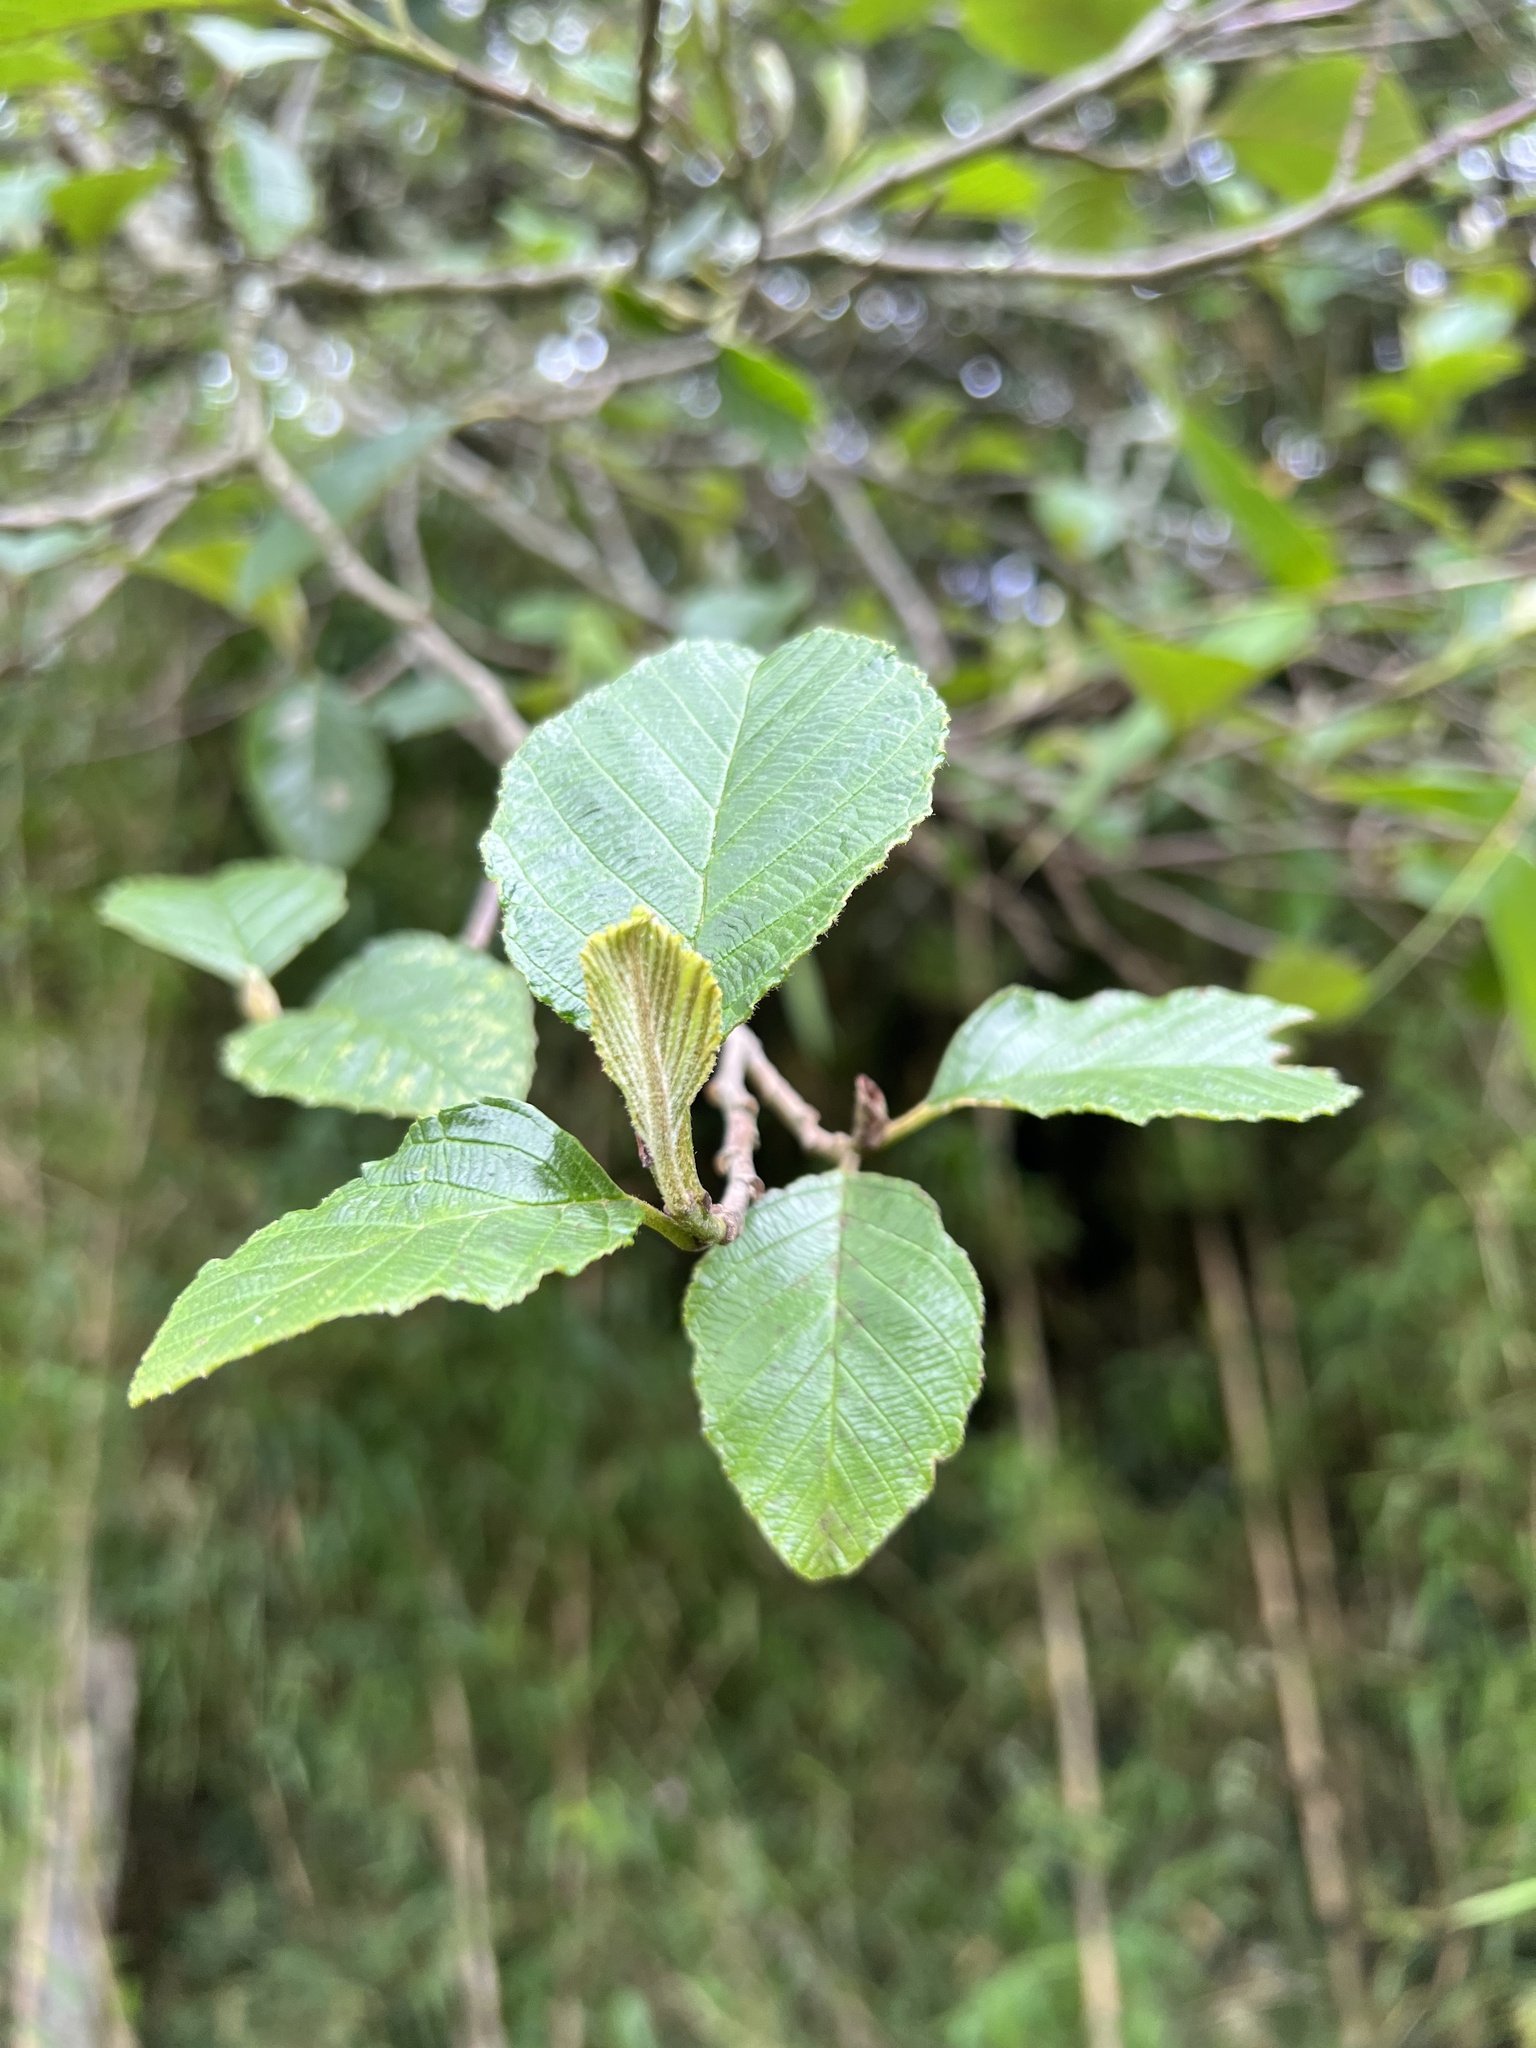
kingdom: Plantae
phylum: Tracheophyta
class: Magnoliopsida
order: Fagales
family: Betulaceae
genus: Alnus
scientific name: Alnus acuminata
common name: Alder
